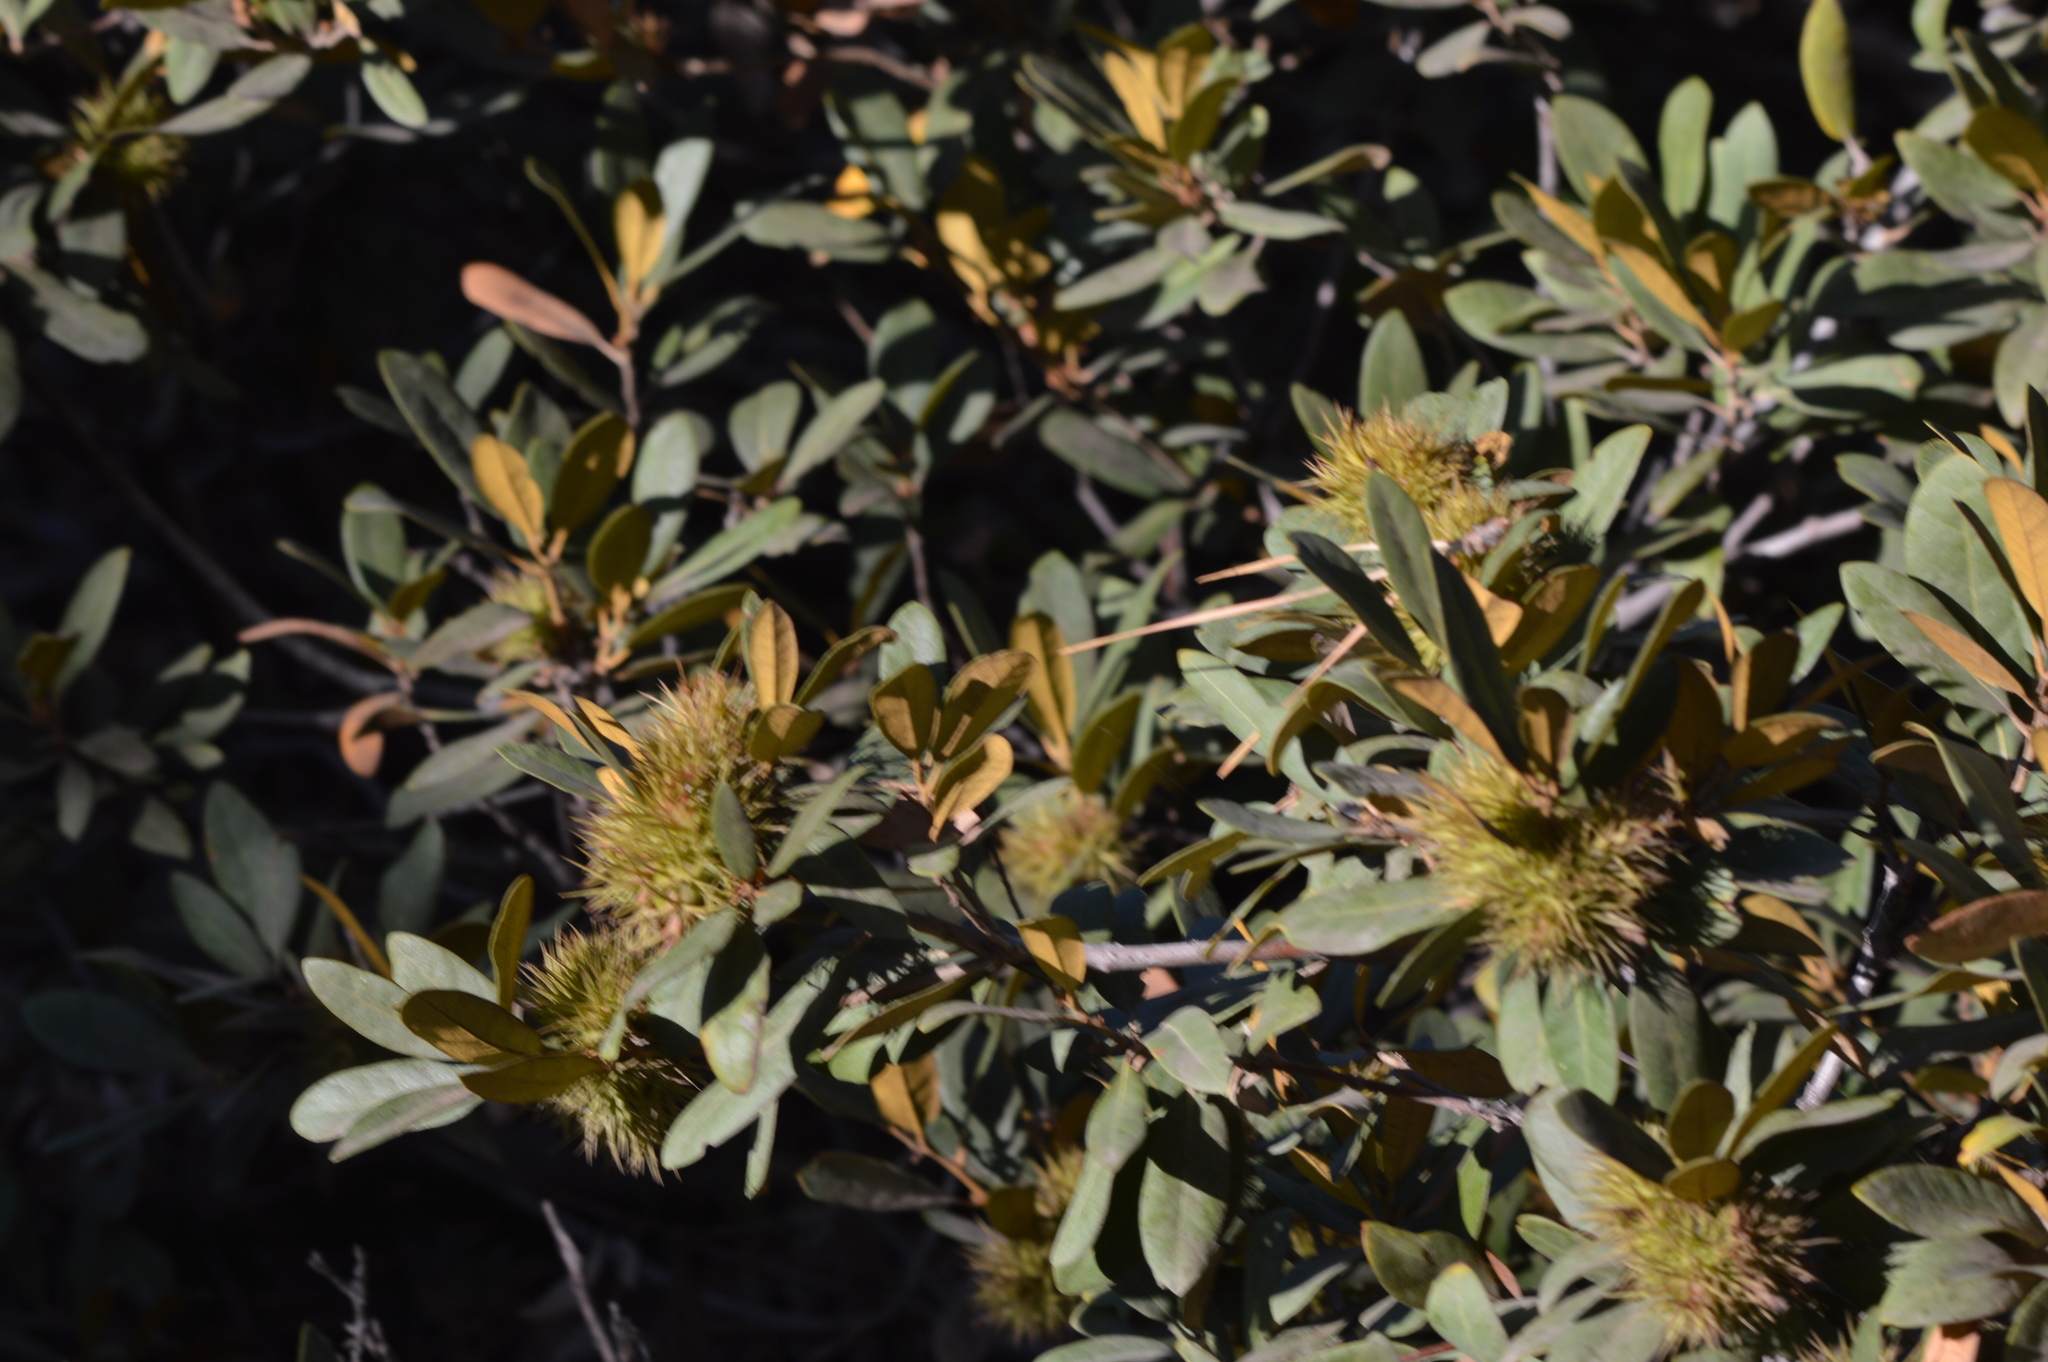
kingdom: Plantae
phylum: Tracheophyta
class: Magnoliopsida
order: Fagales
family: Fagaceae
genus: Chrysolepis
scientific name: Chrysolepis sempervirens
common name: Bush chinquapin
